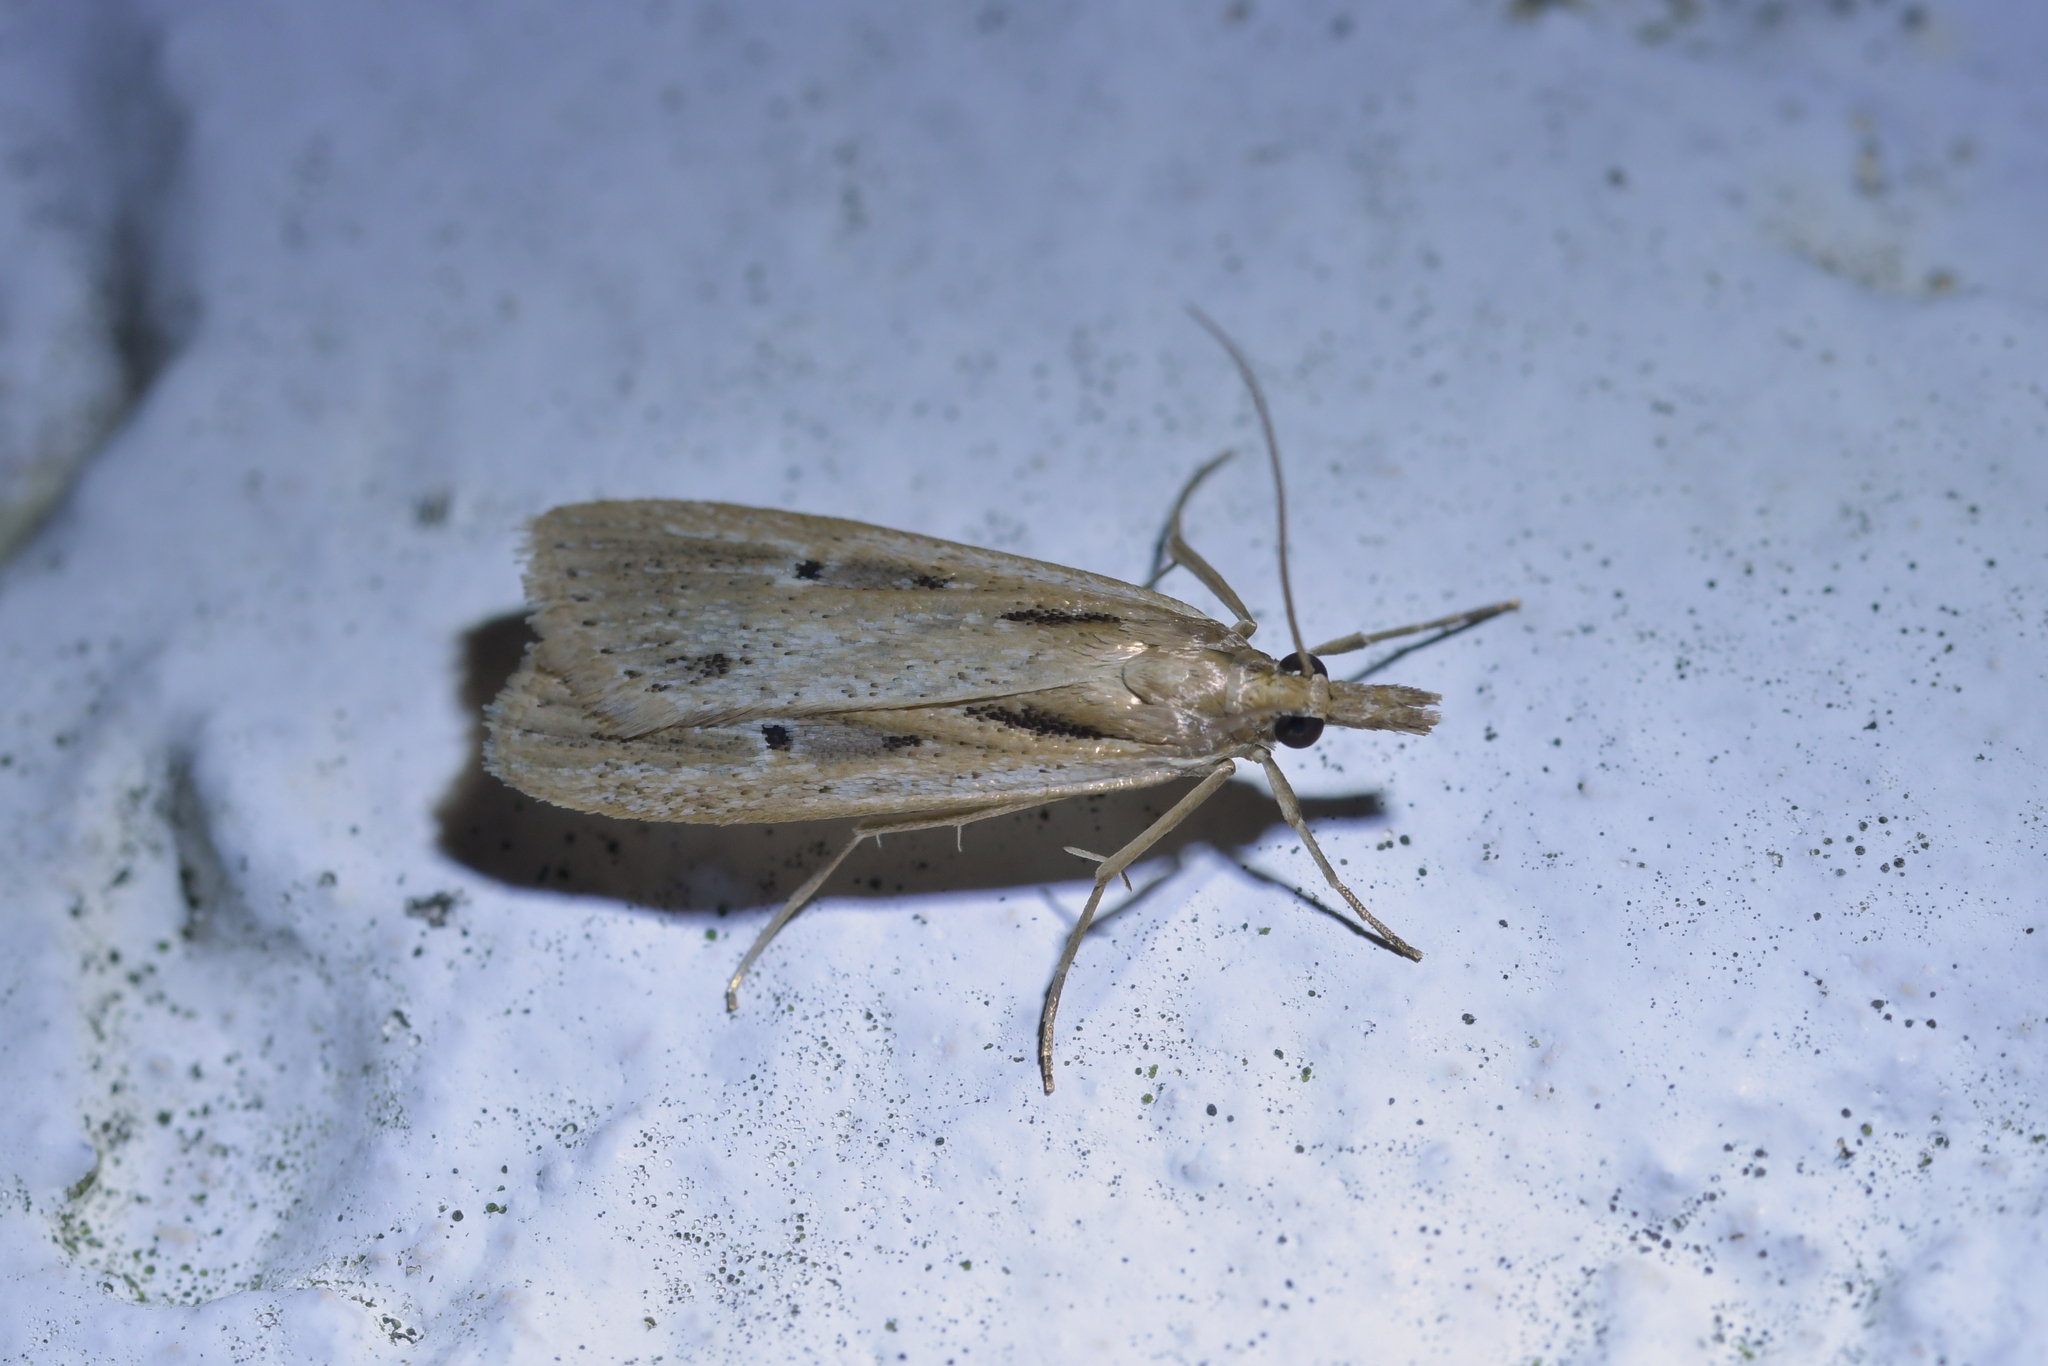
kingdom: Animalia
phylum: Arthropoda
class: Insecta
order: Lepidoptera
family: Crambidae
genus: Eudonia
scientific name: Eudonia sabulosella
